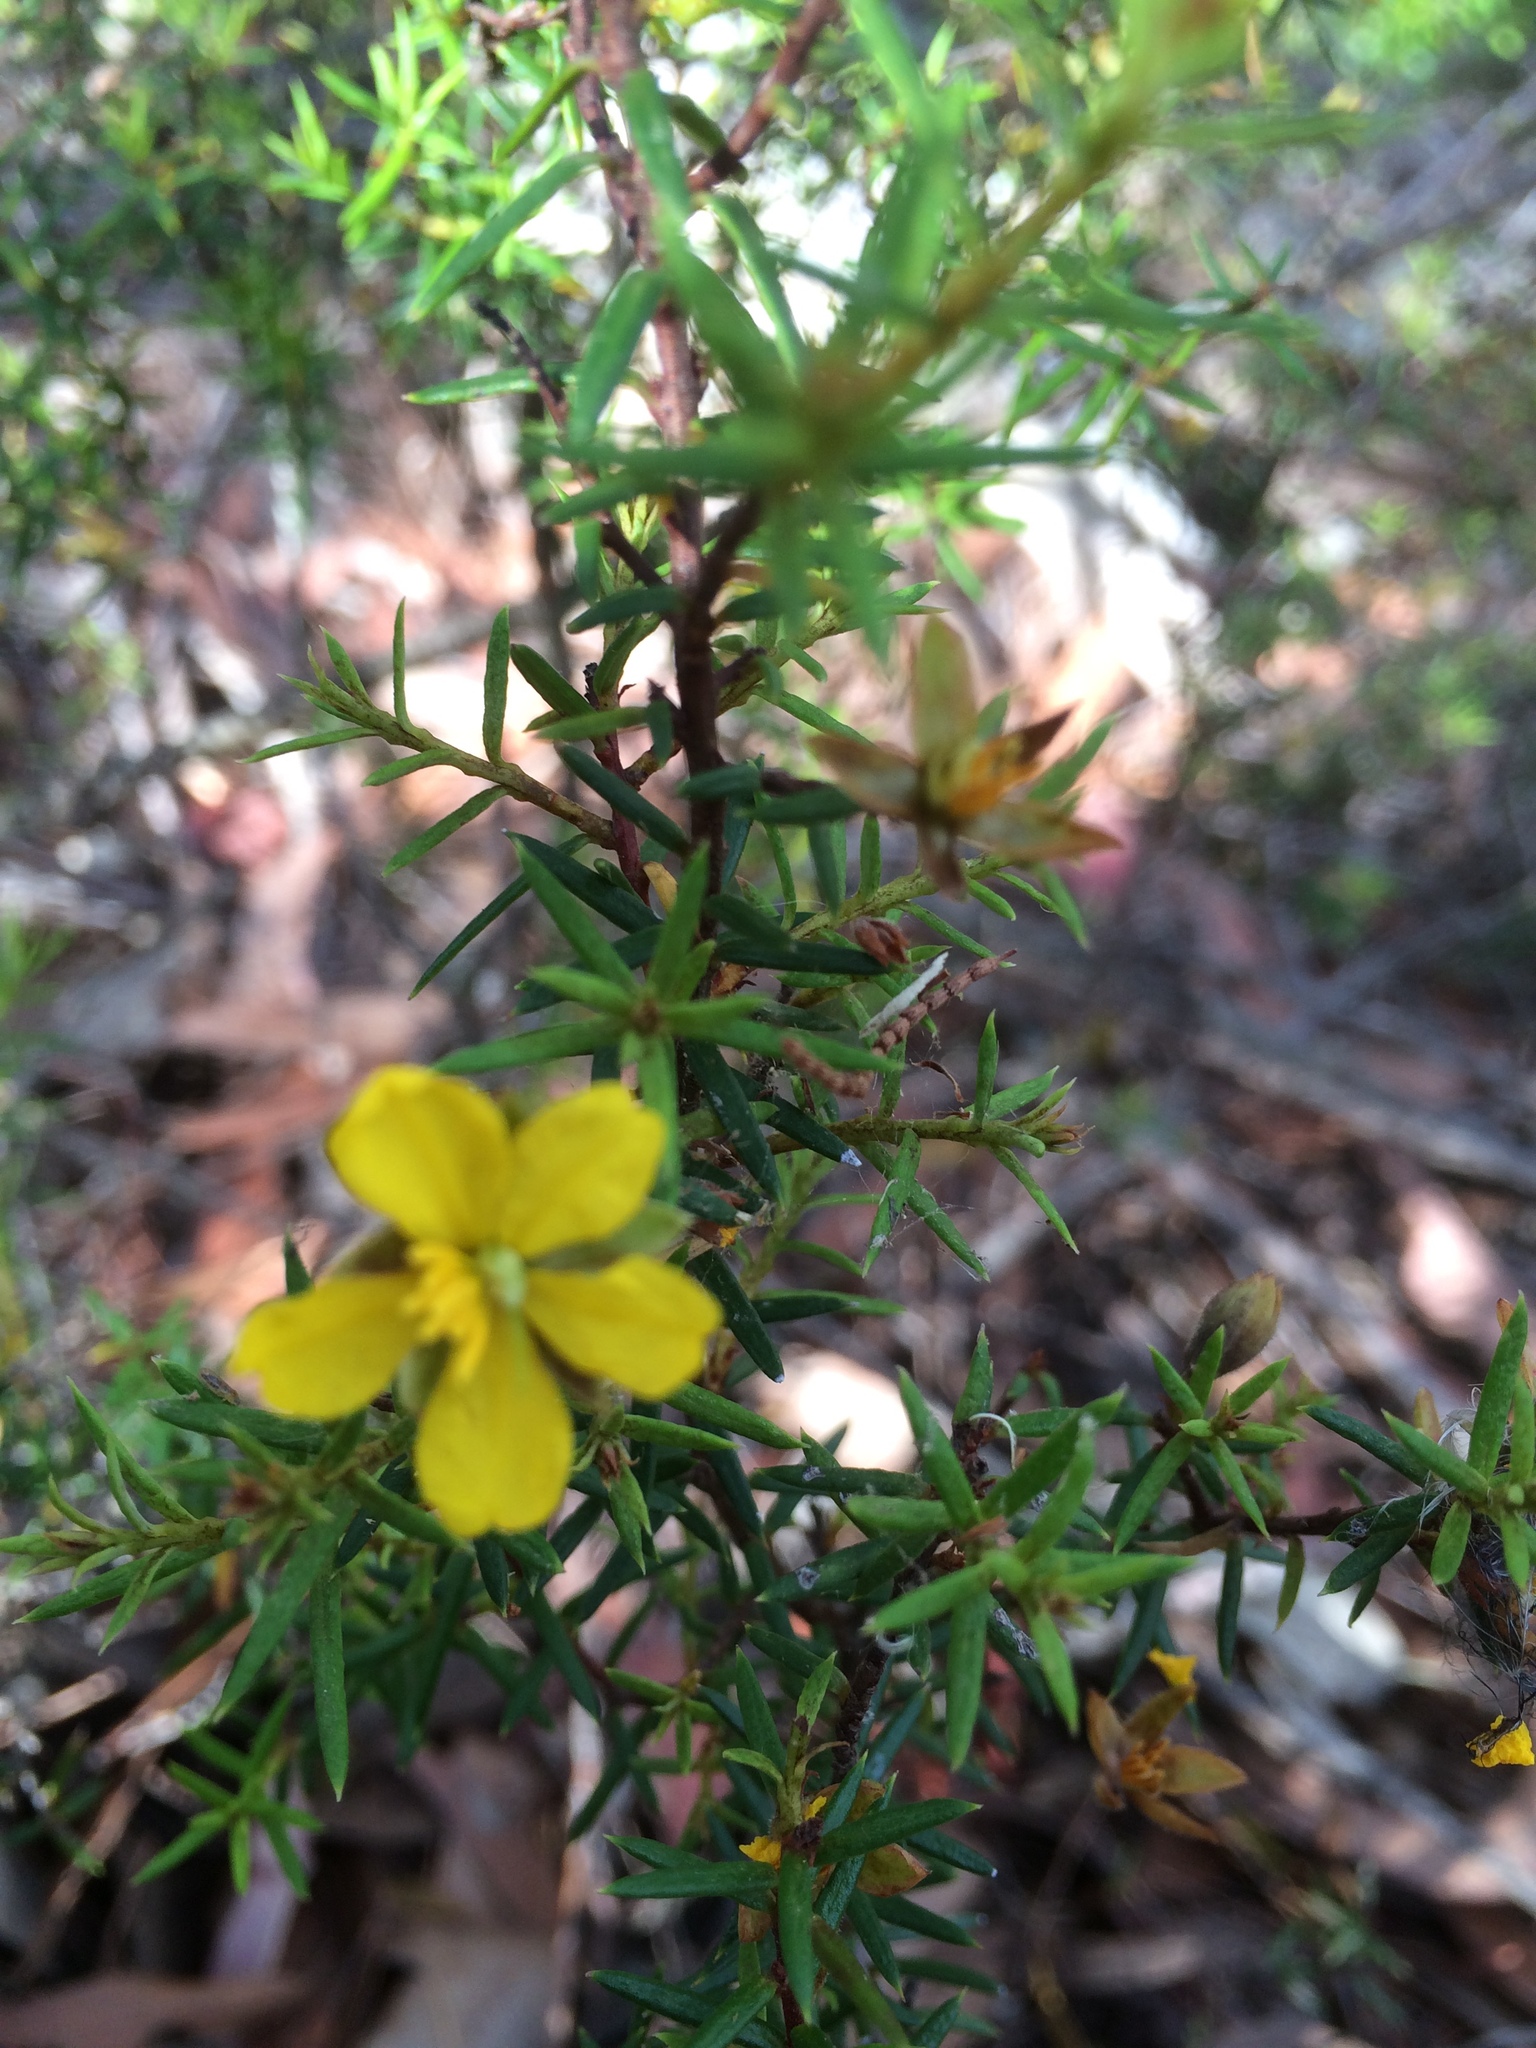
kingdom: Plantae
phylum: Tracheophyta
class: Magnoliopsida
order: Dilleniales
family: Dilleniaceae
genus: Hibbertia
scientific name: Hibbertia
